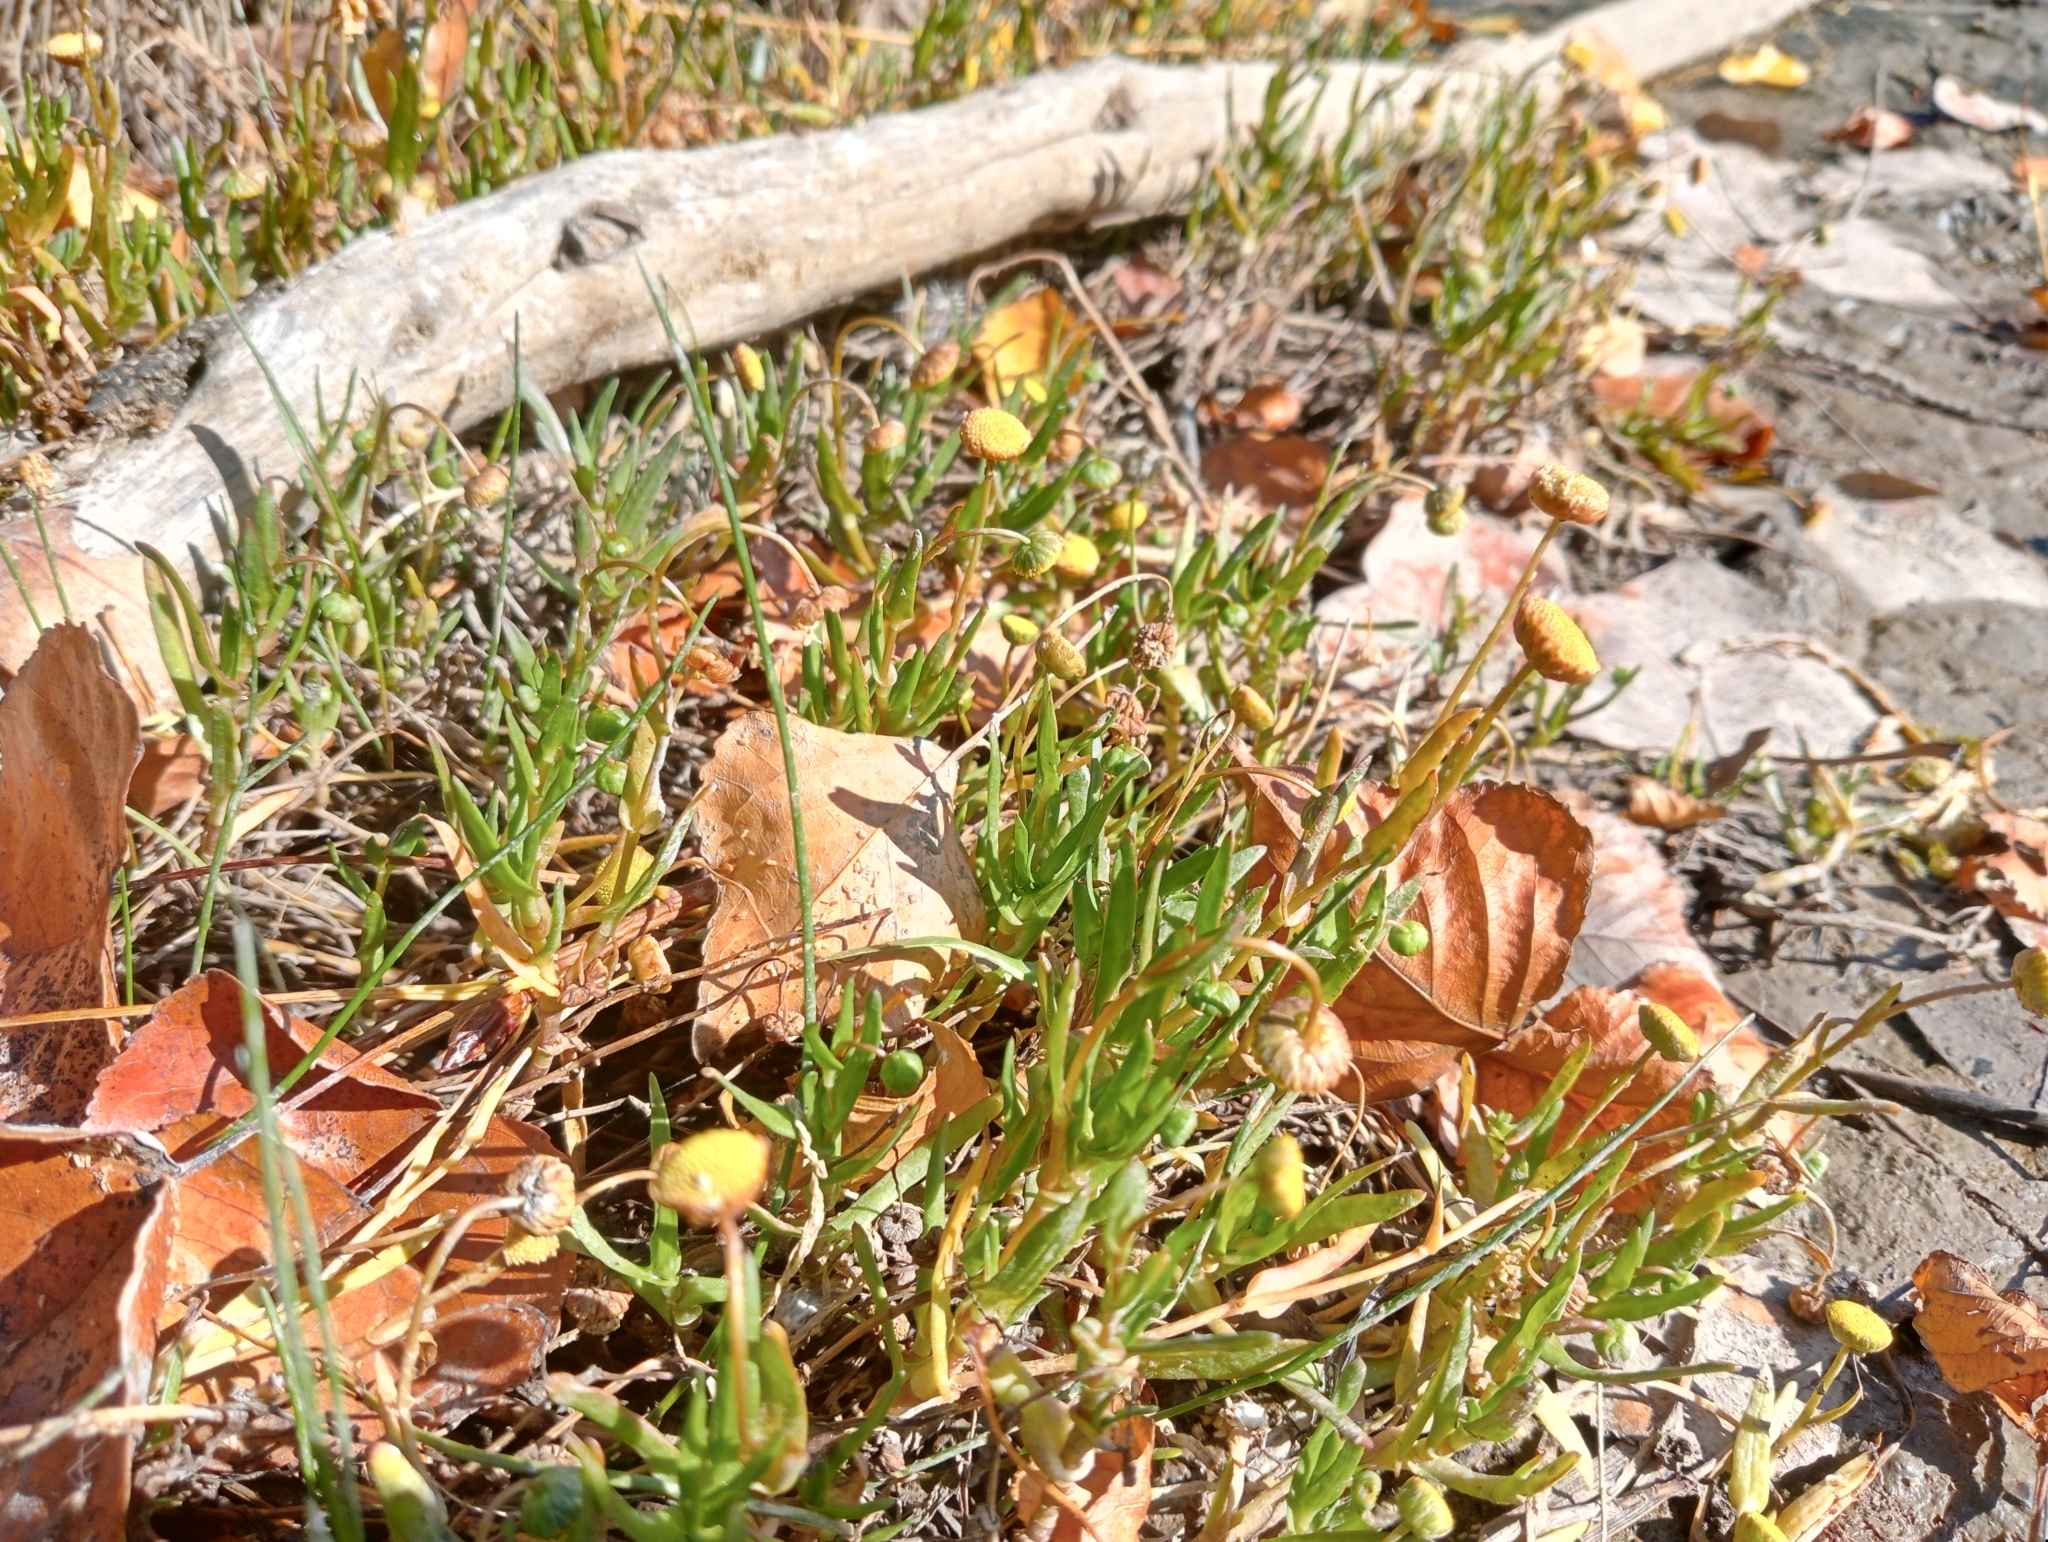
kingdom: Plantae
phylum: Tracheophyta
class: Magnoliopsida
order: Asterales
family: Asteraceae
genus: Cotula
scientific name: Cotula coronopifolia
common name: Buttonweed
